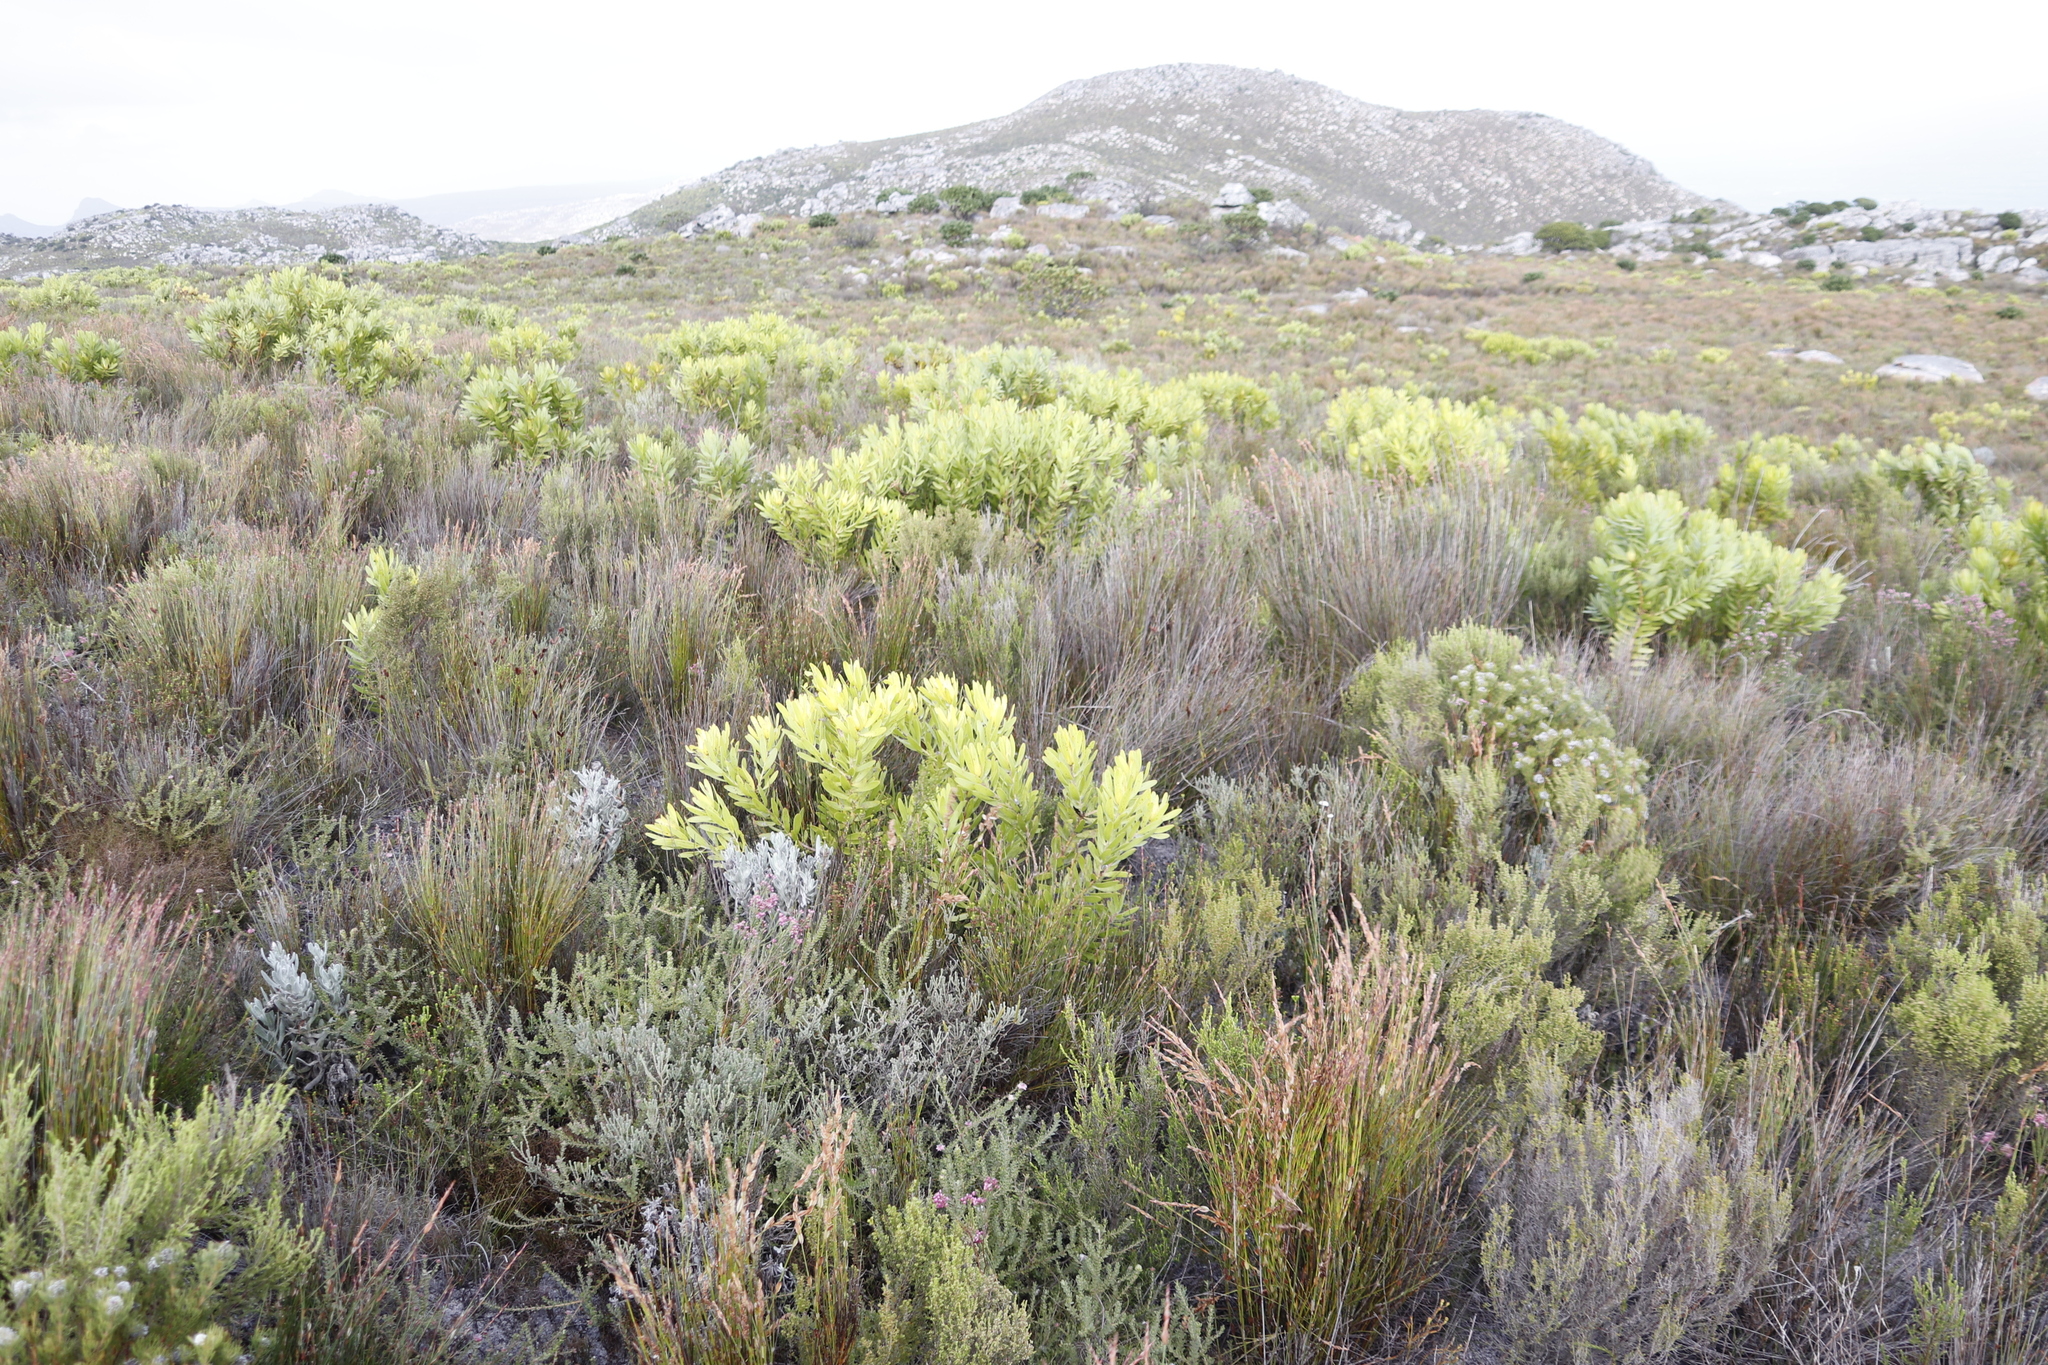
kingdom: Plantae
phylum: Tracheophyta
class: Magnoliopsida
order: Proteales
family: Proteaceae
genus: Leucadendron
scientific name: Leucadendron laureolum
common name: Golden sunshinebush
